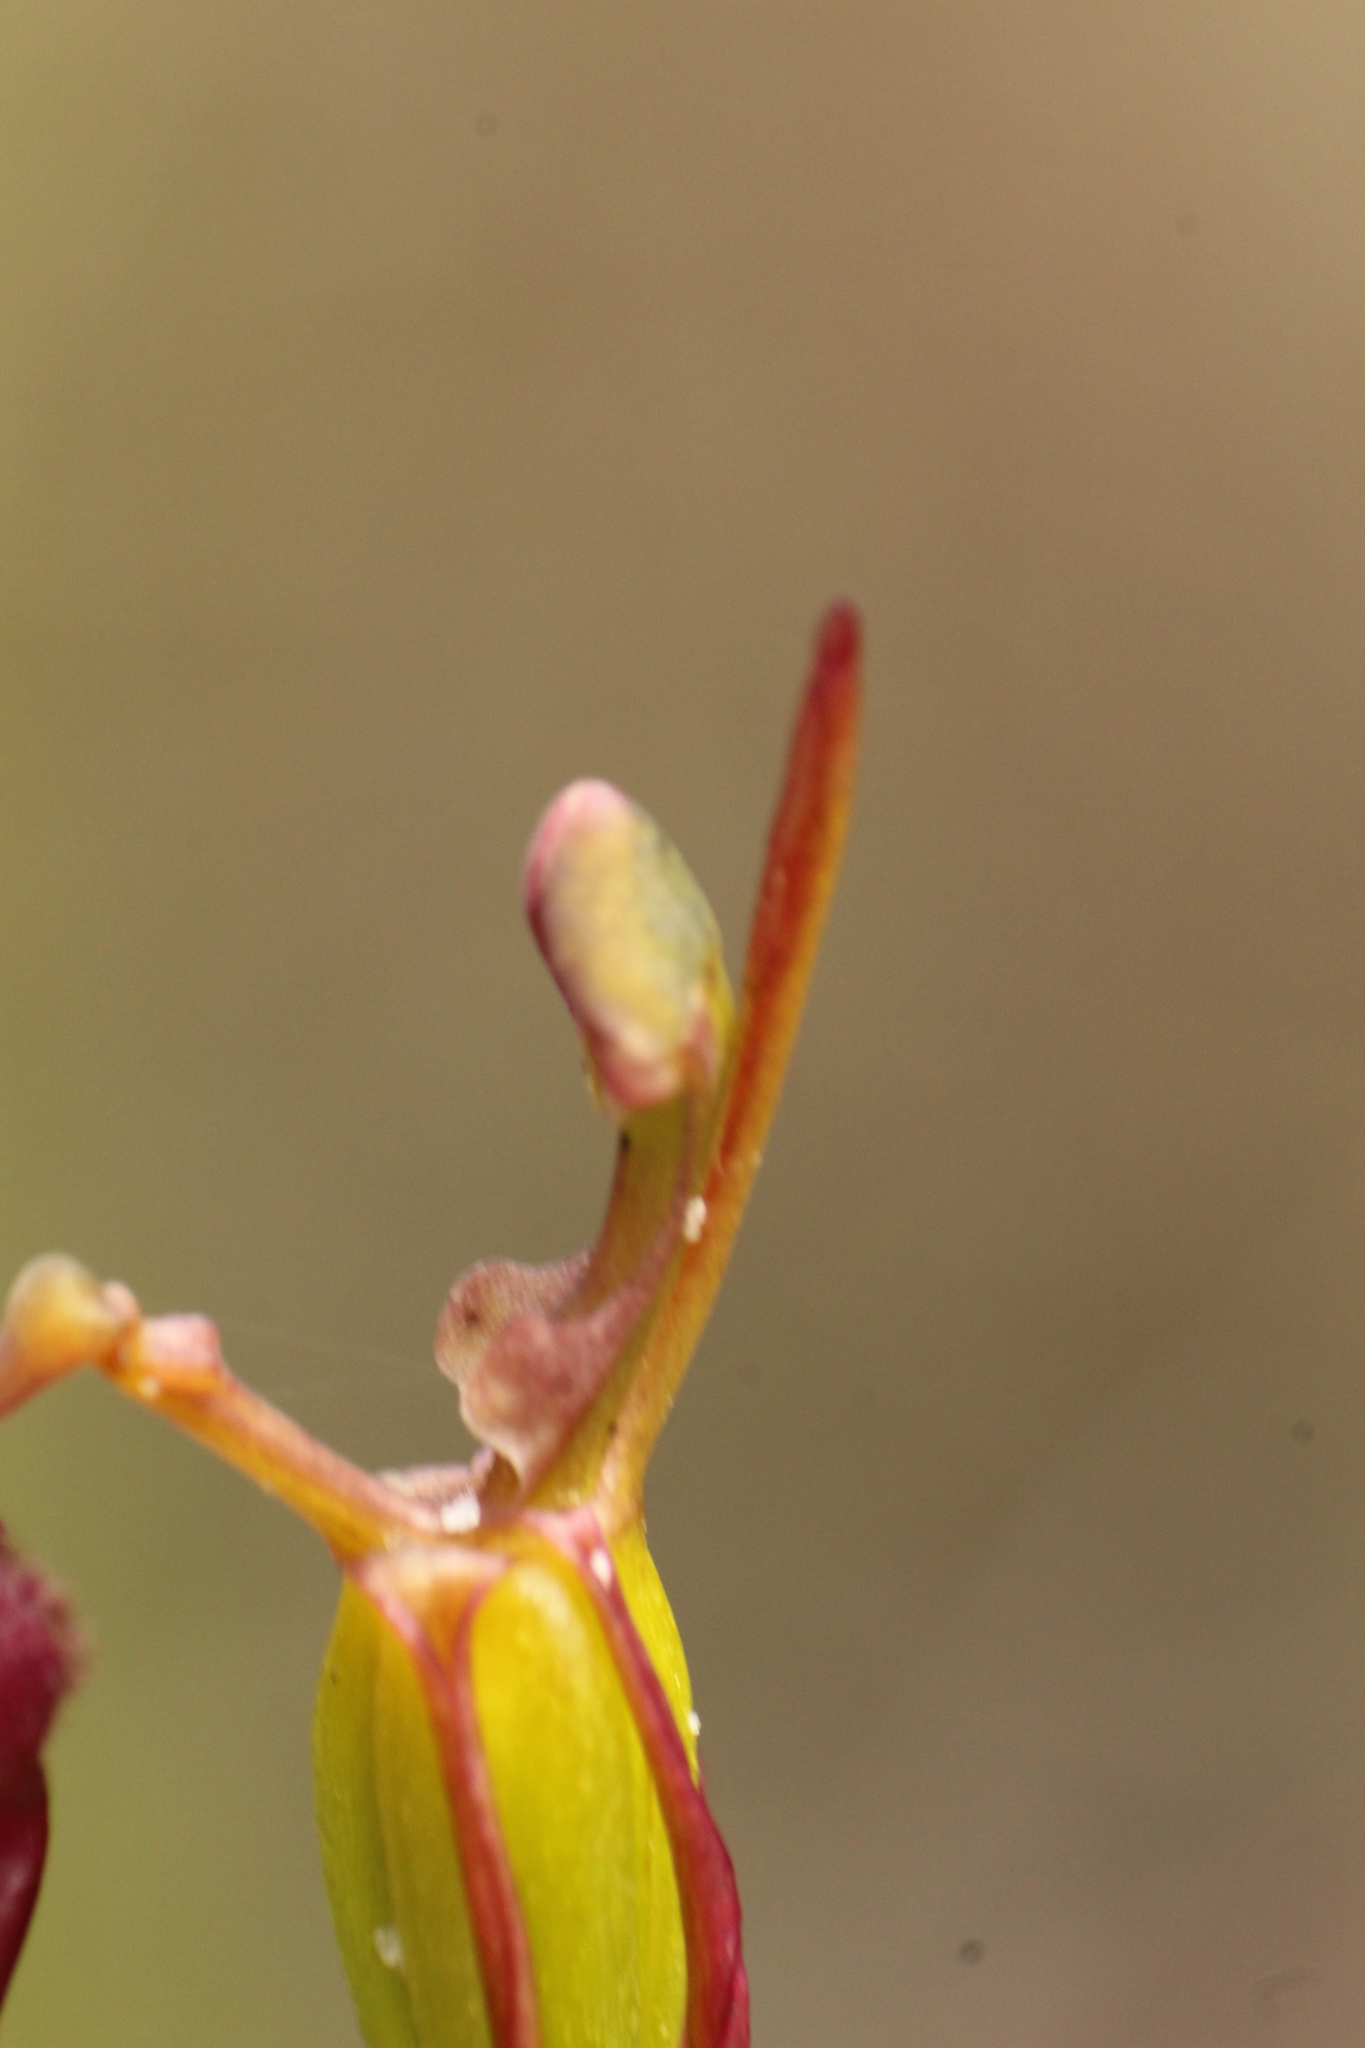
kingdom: Plantae
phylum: Tracheophyta
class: Liliopsida
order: Asparagales
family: Orchidaceae
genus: Drakaea
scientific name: Drakaea glyptodon
